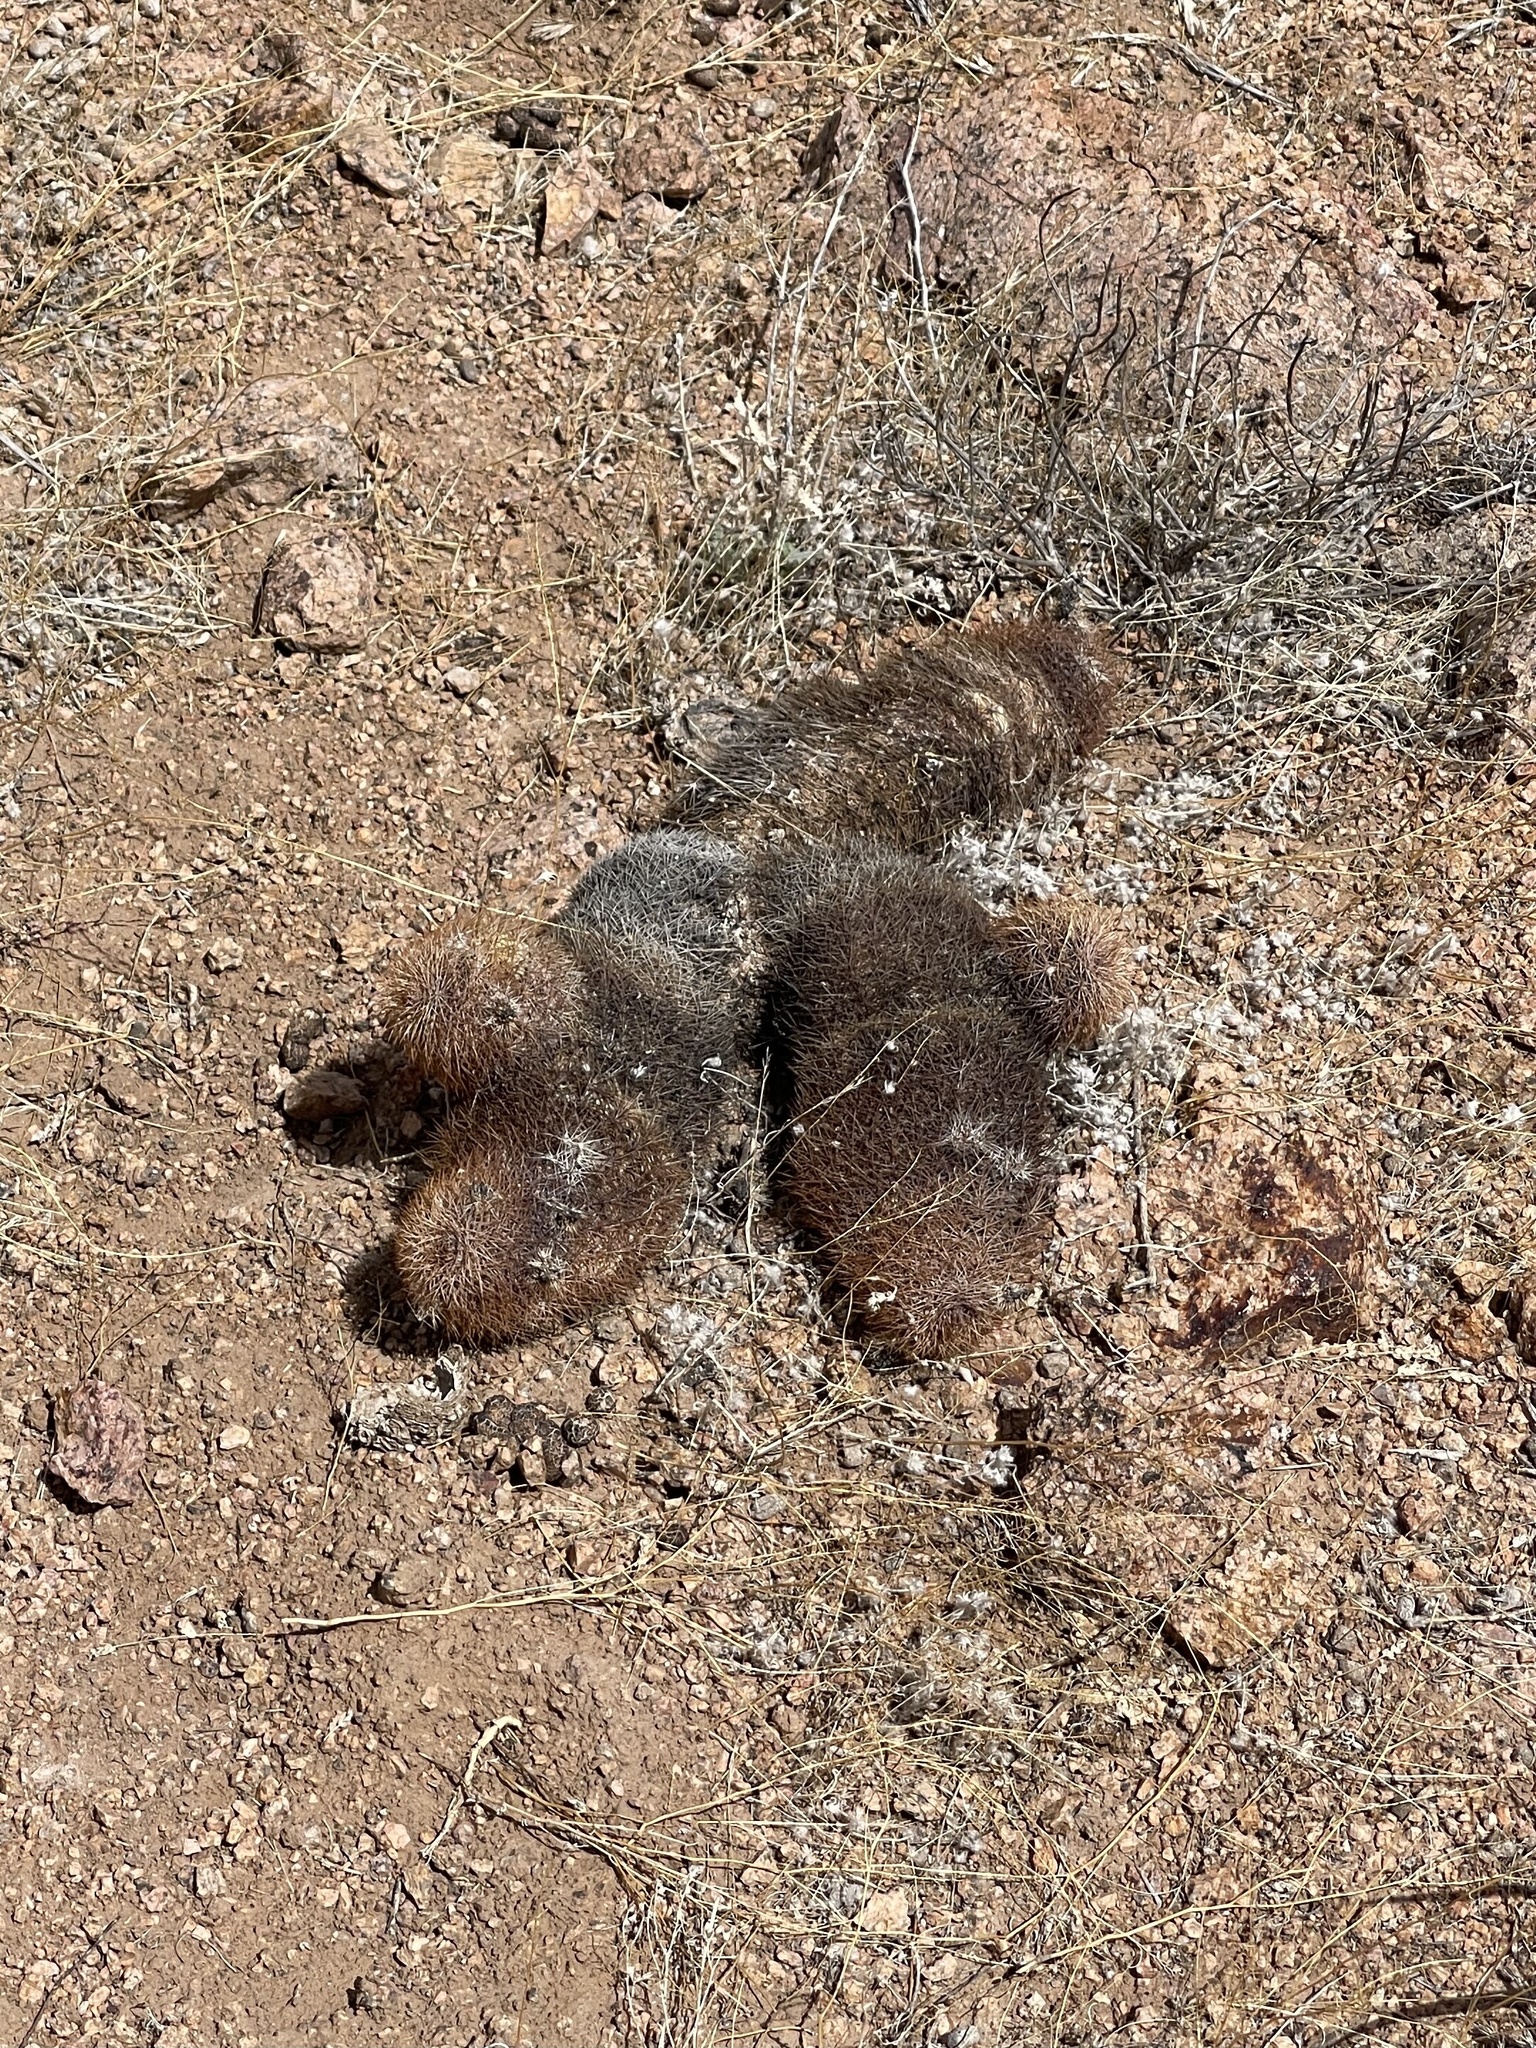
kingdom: Plantae
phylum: Tracheophyta
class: Magnoliopsida
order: Caryophyllales
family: Cactaceae
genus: Echinocereus
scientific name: Echinocereus dasyacanthus
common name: Spiny hedgehog cactus
